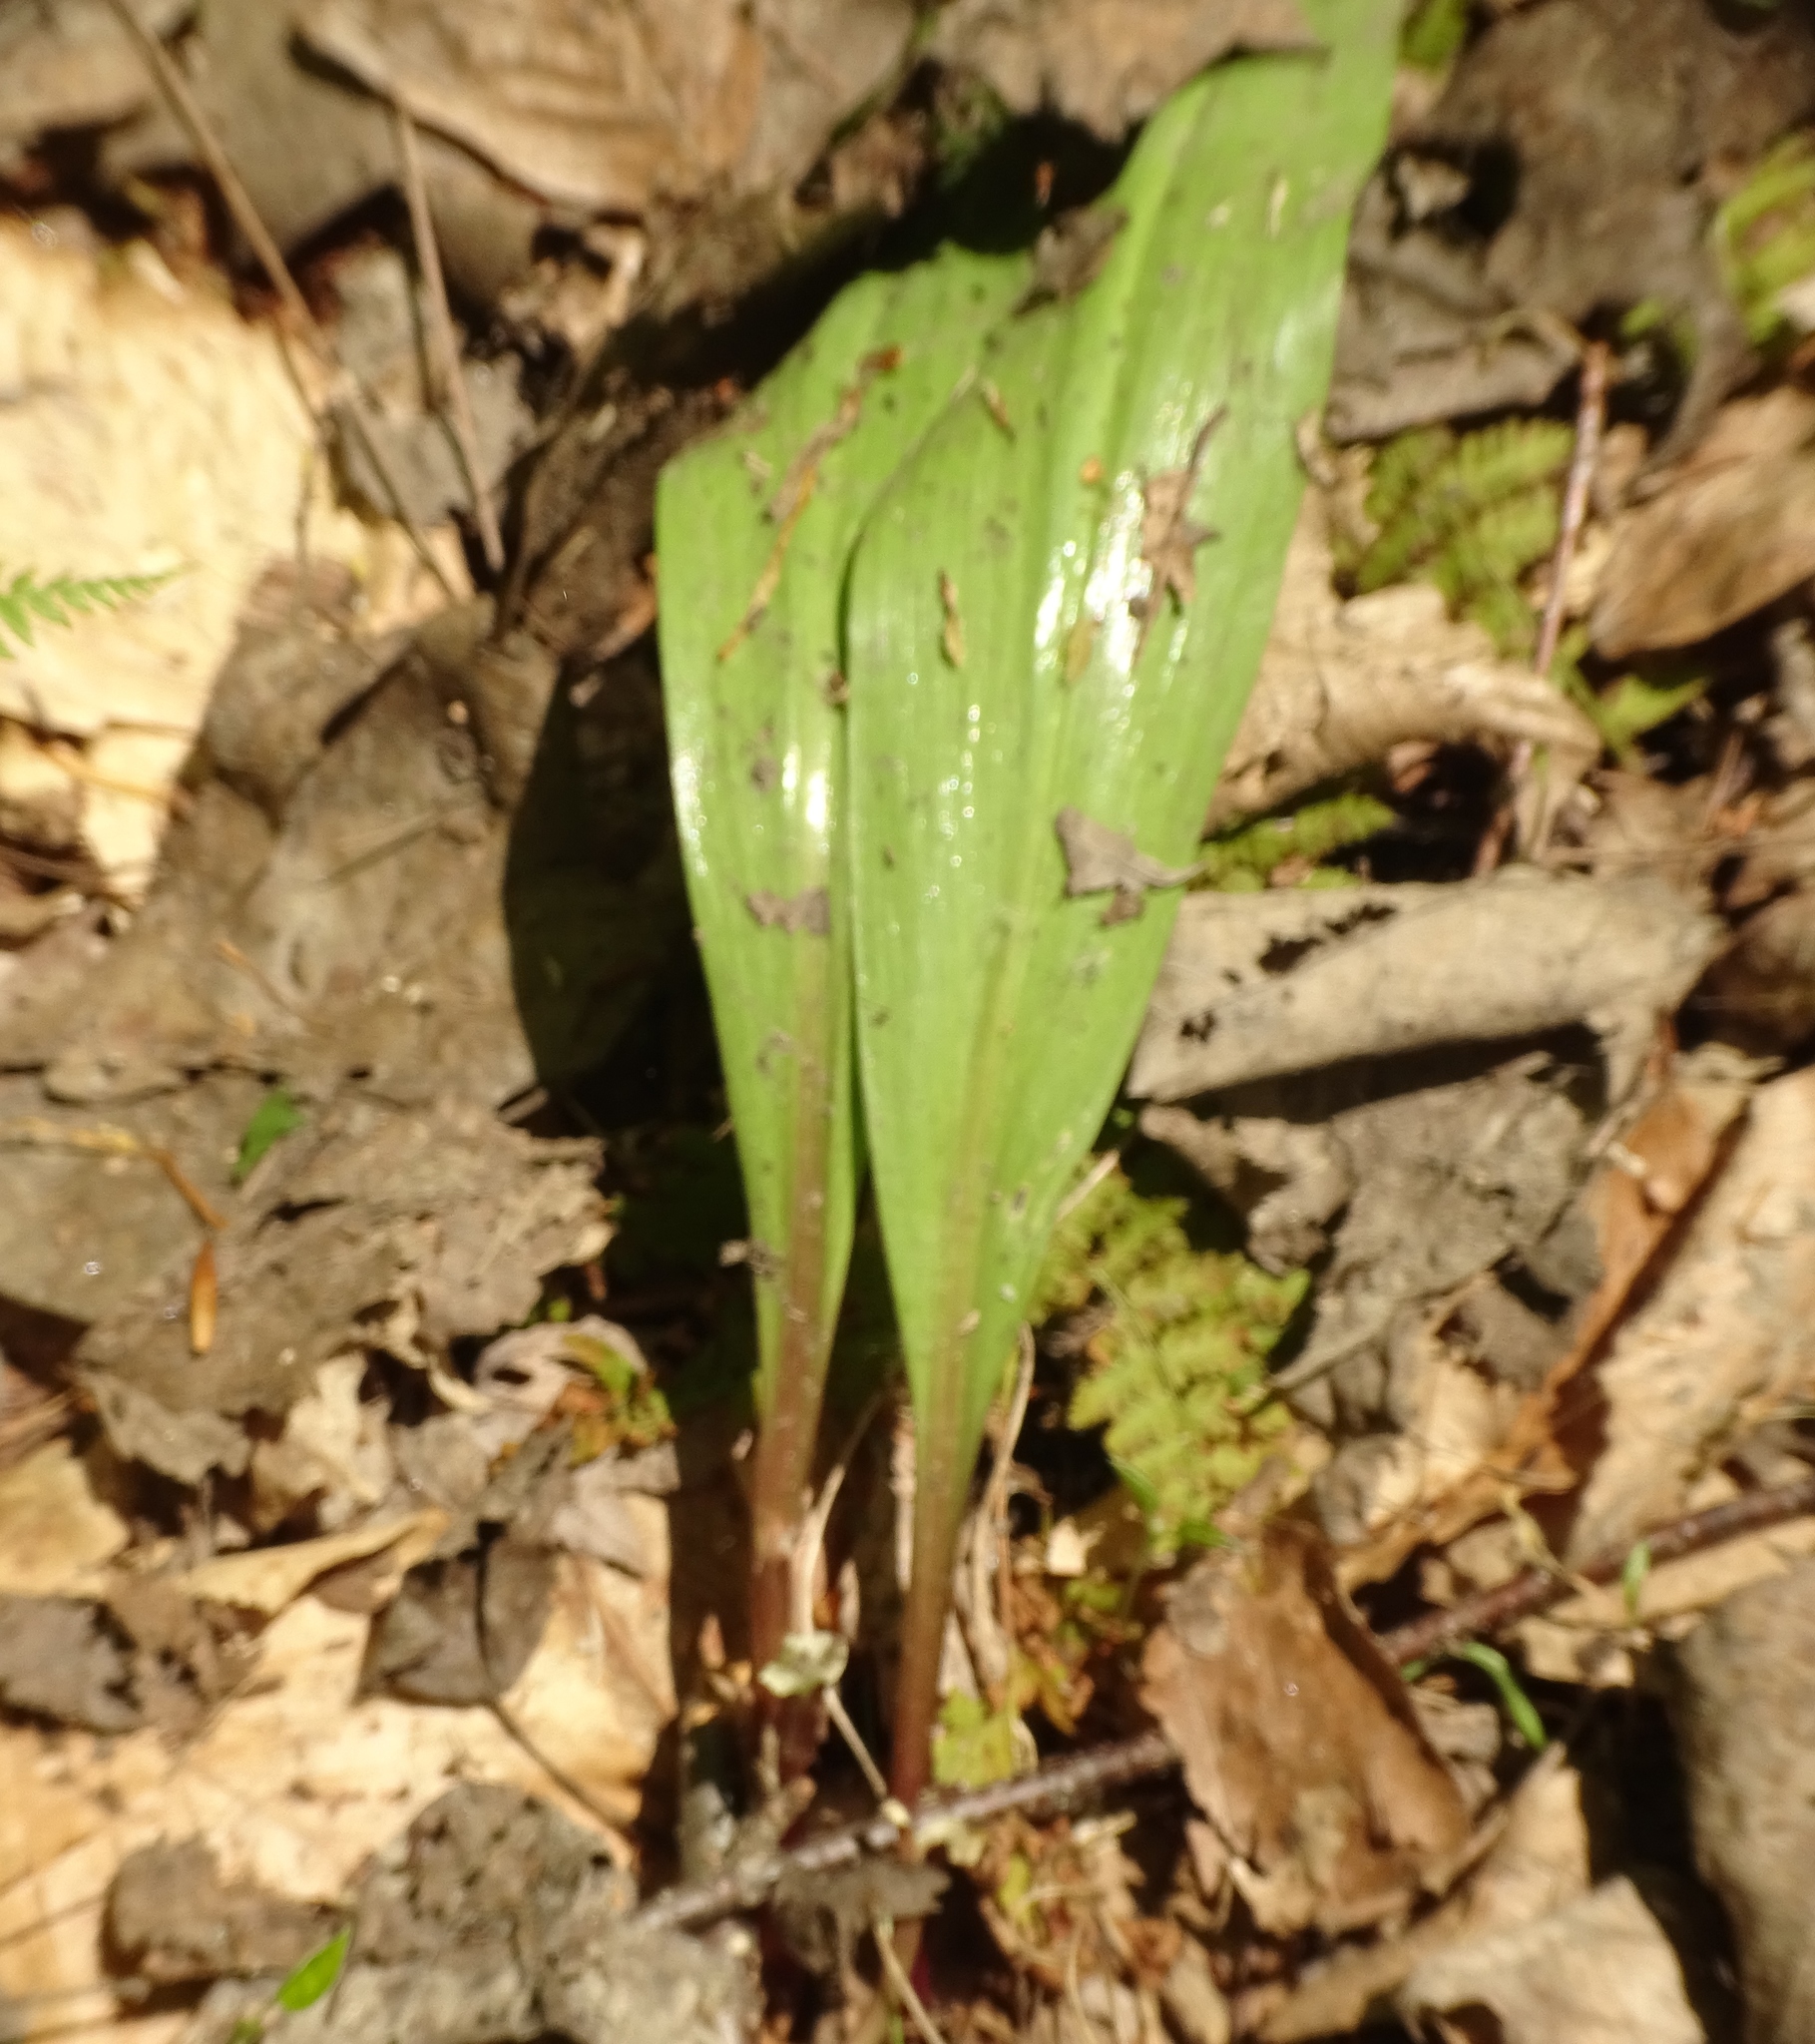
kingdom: Plantae
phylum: Tracheophyta
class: Liliopsida
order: Asparagales
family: Amaryllidaceae
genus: Allium
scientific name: Allium tricoccum
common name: Ramp
